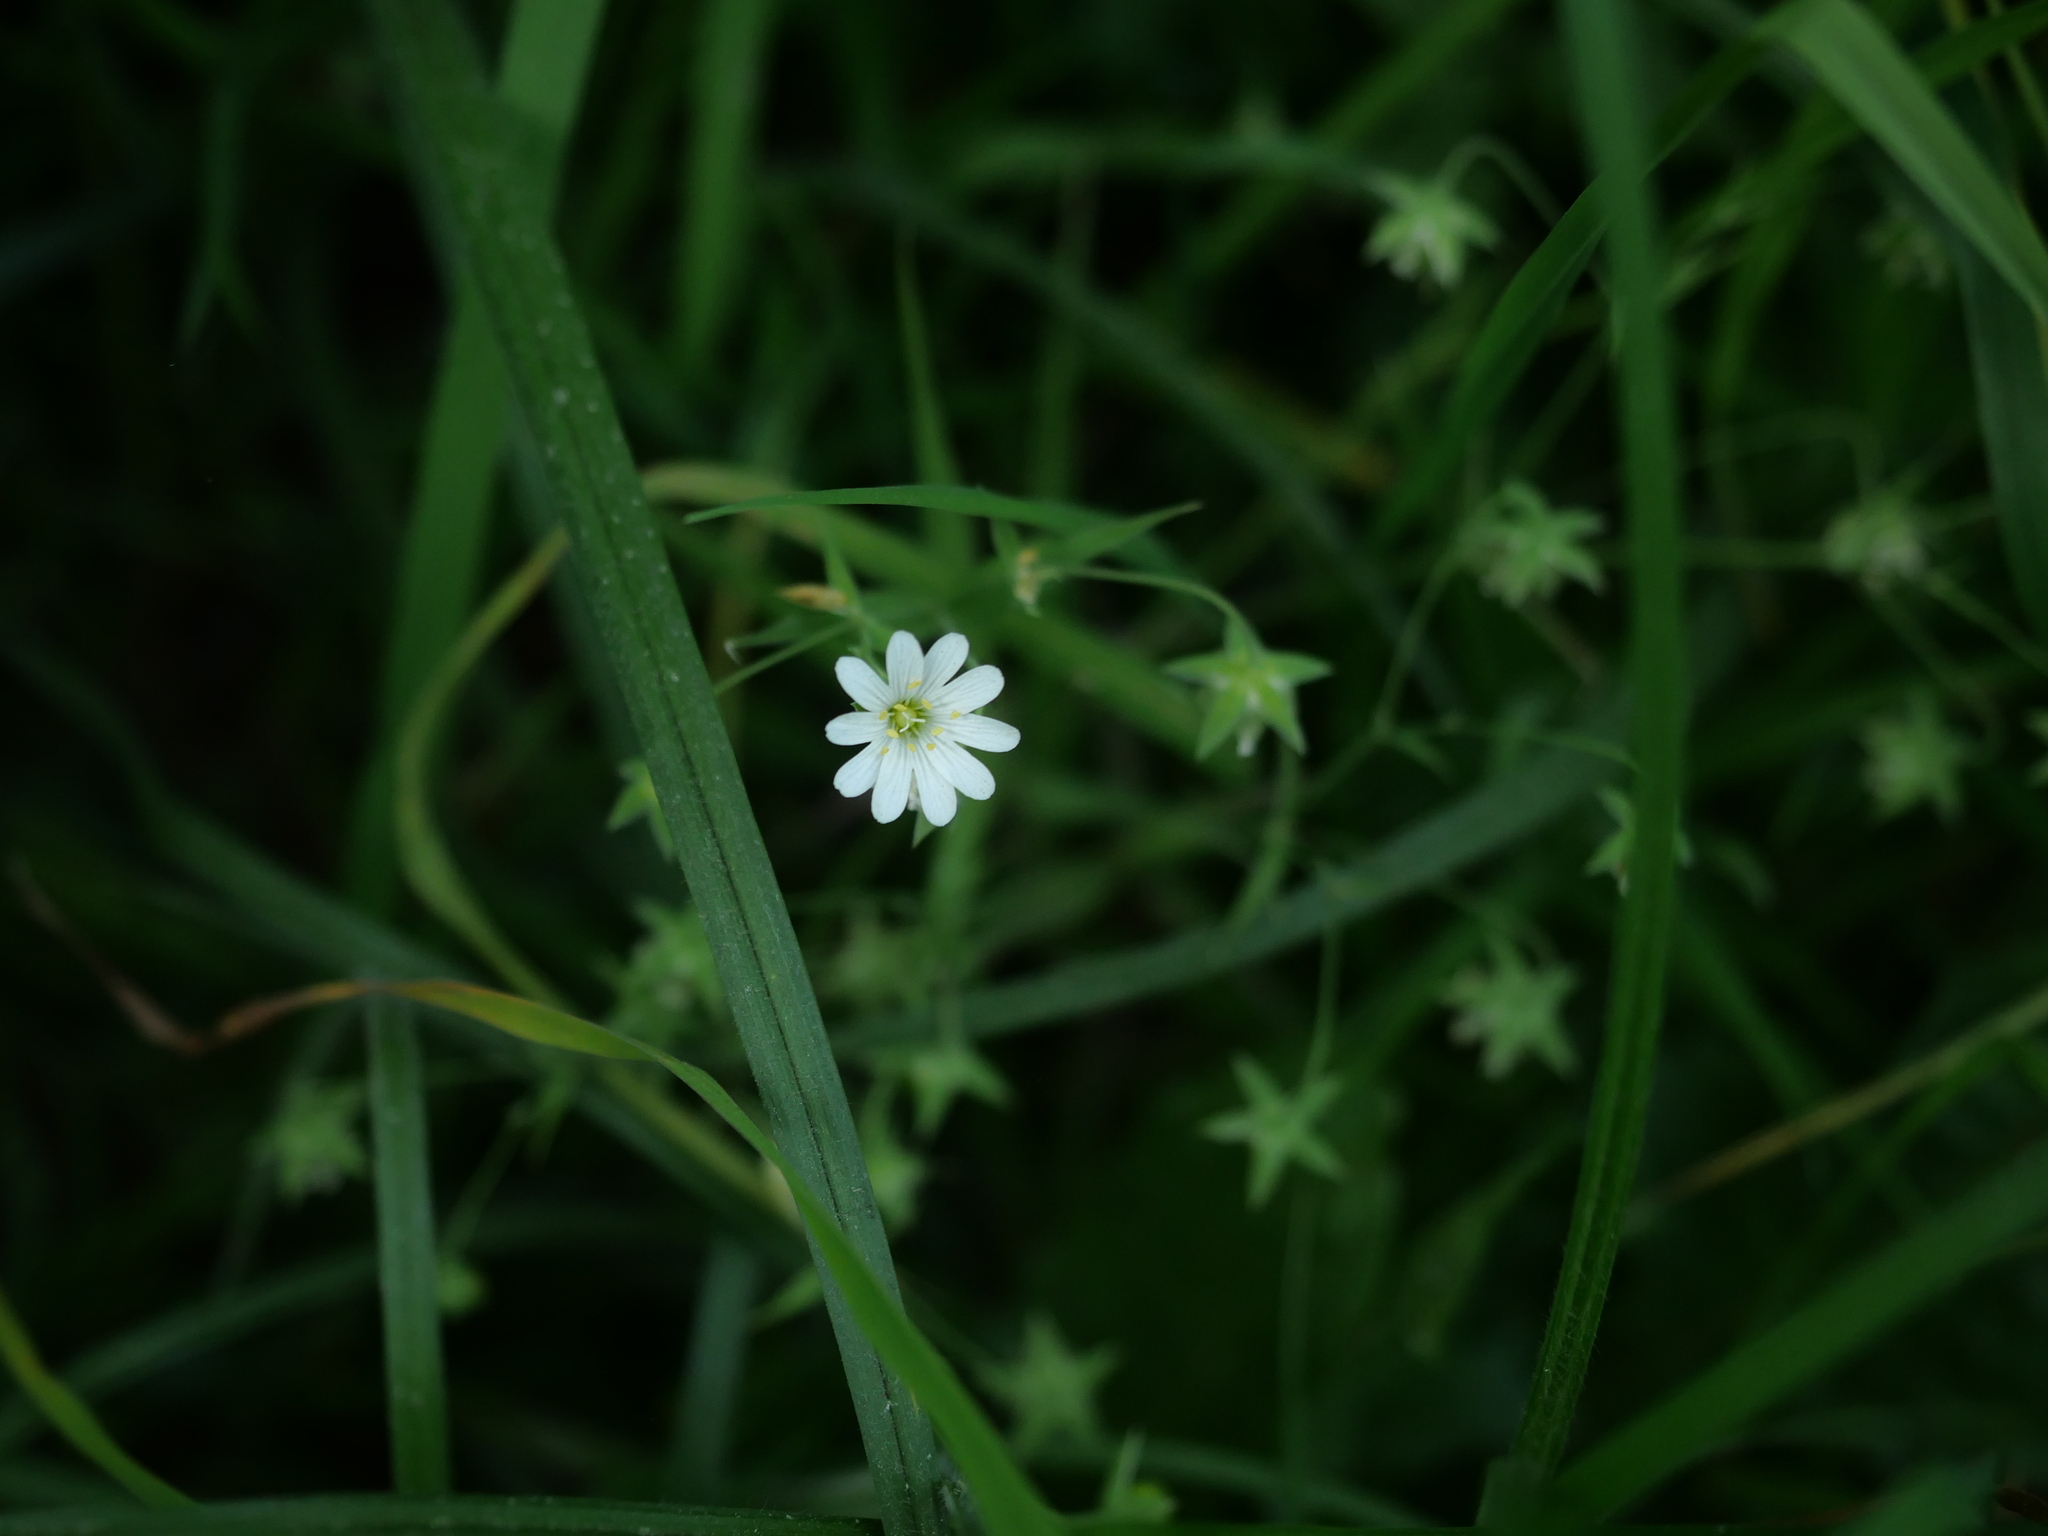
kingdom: Plantae
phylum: Tracheophyta
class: Magnoliopsida
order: Caryophyllales
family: Caryophyllaceae
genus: Rabelera
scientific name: Rabelera holostea
